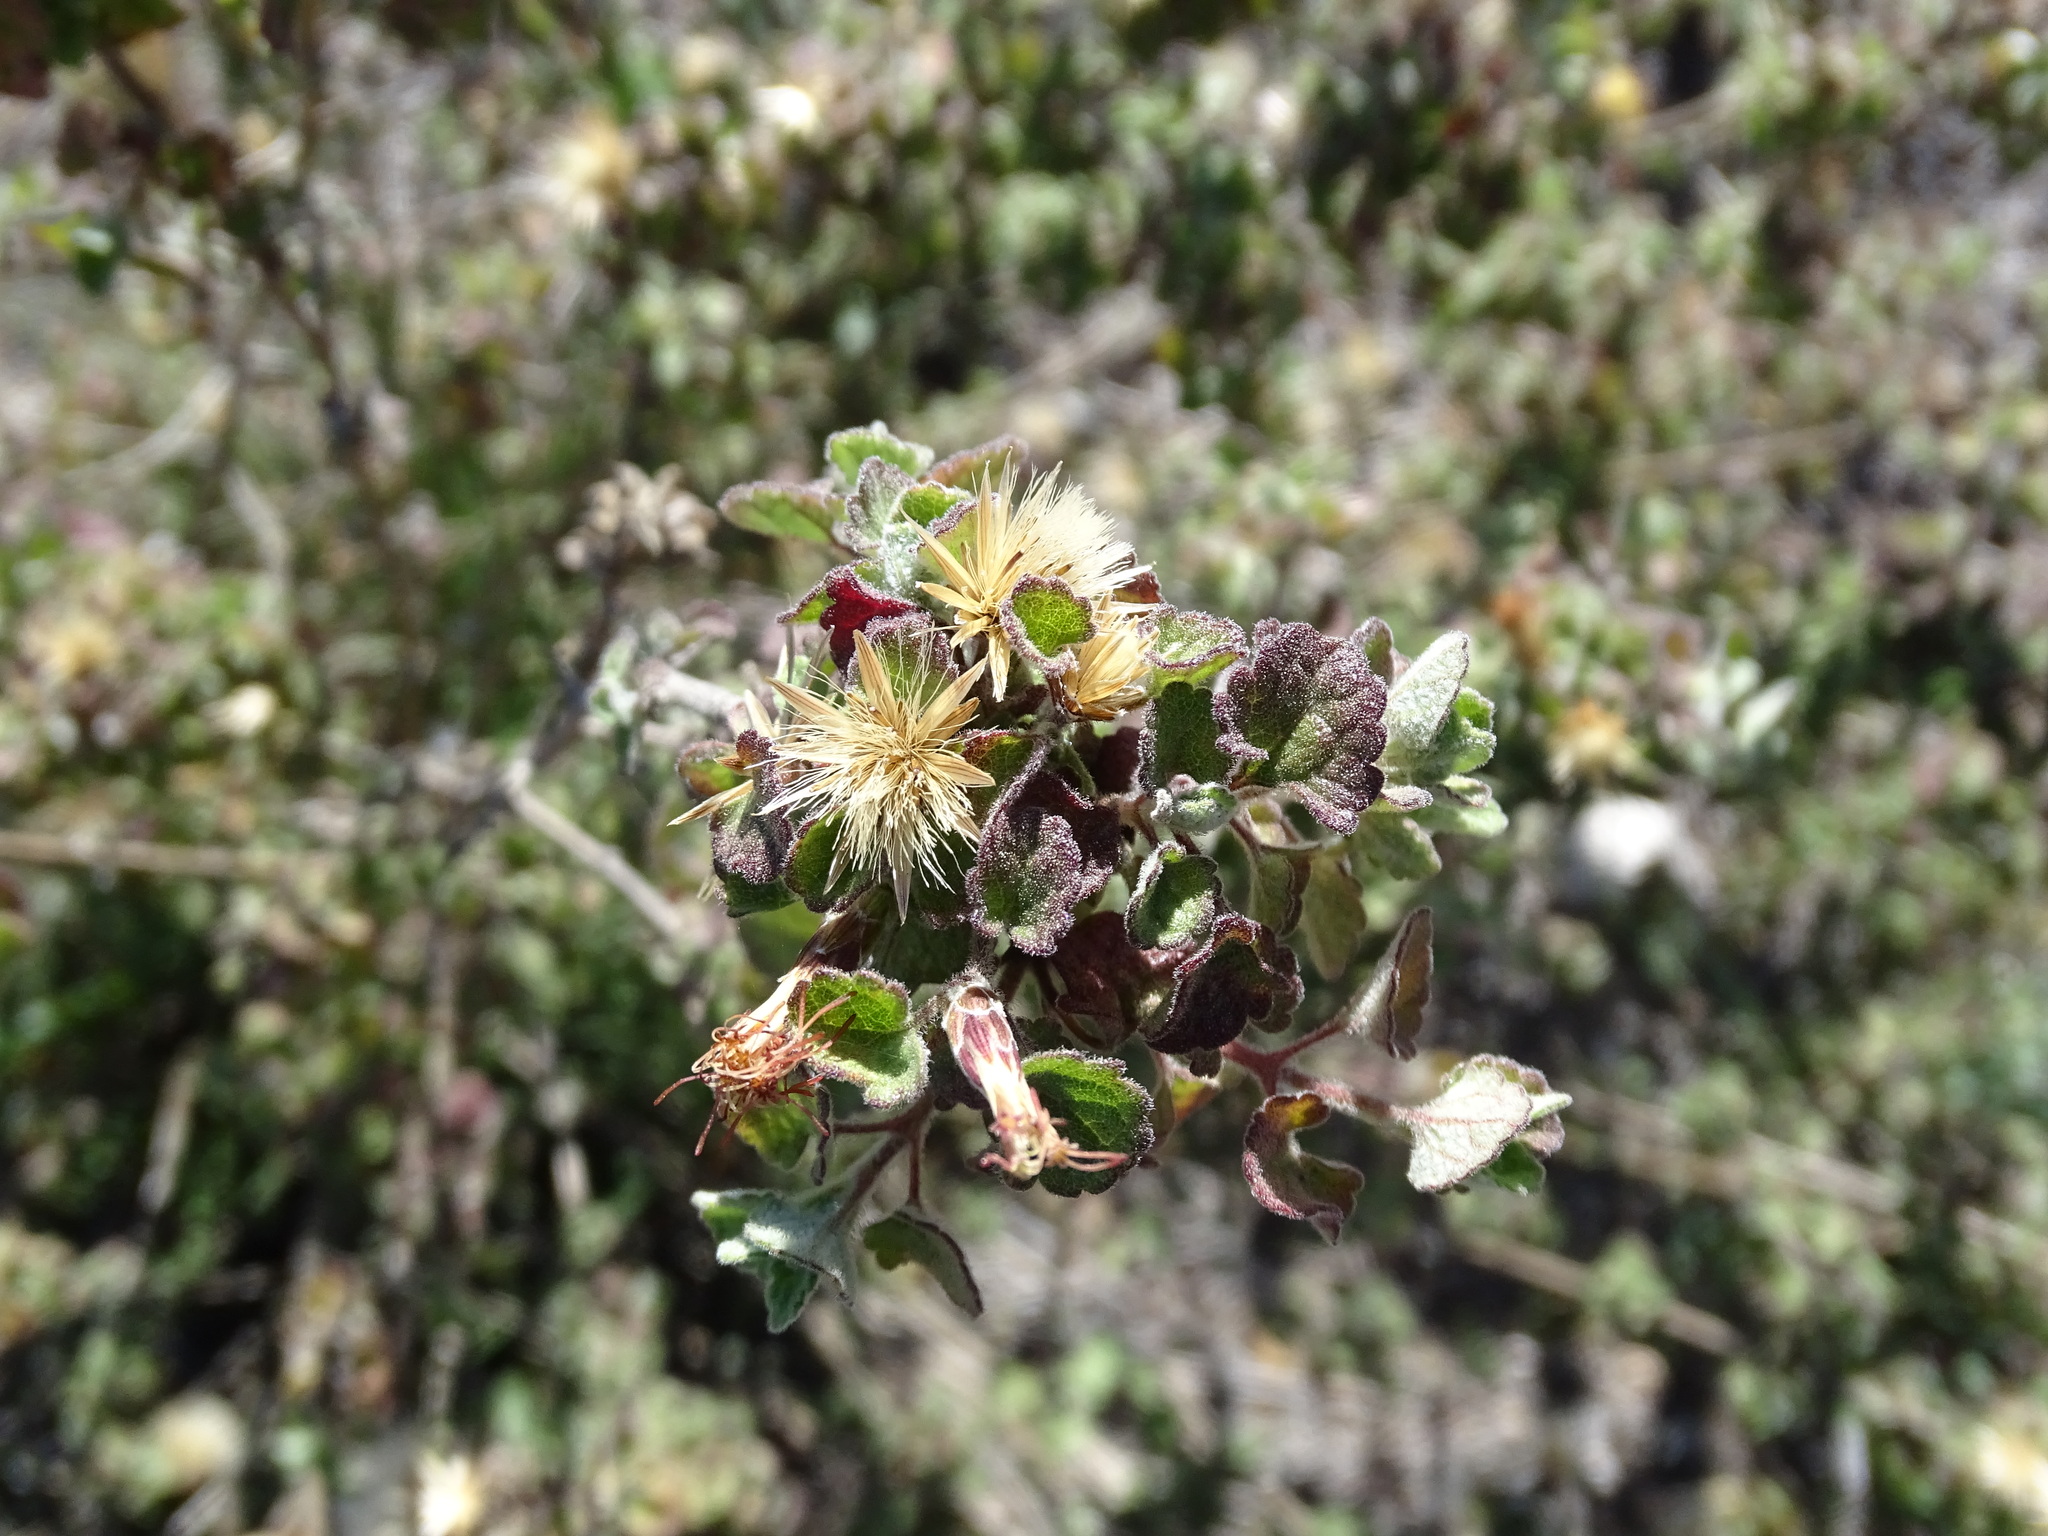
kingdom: Plantae
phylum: Tracheophyta
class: Magnoliopsida
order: Asterales
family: Asteraceae
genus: Brickellia
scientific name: Brickellia veronicifolia
